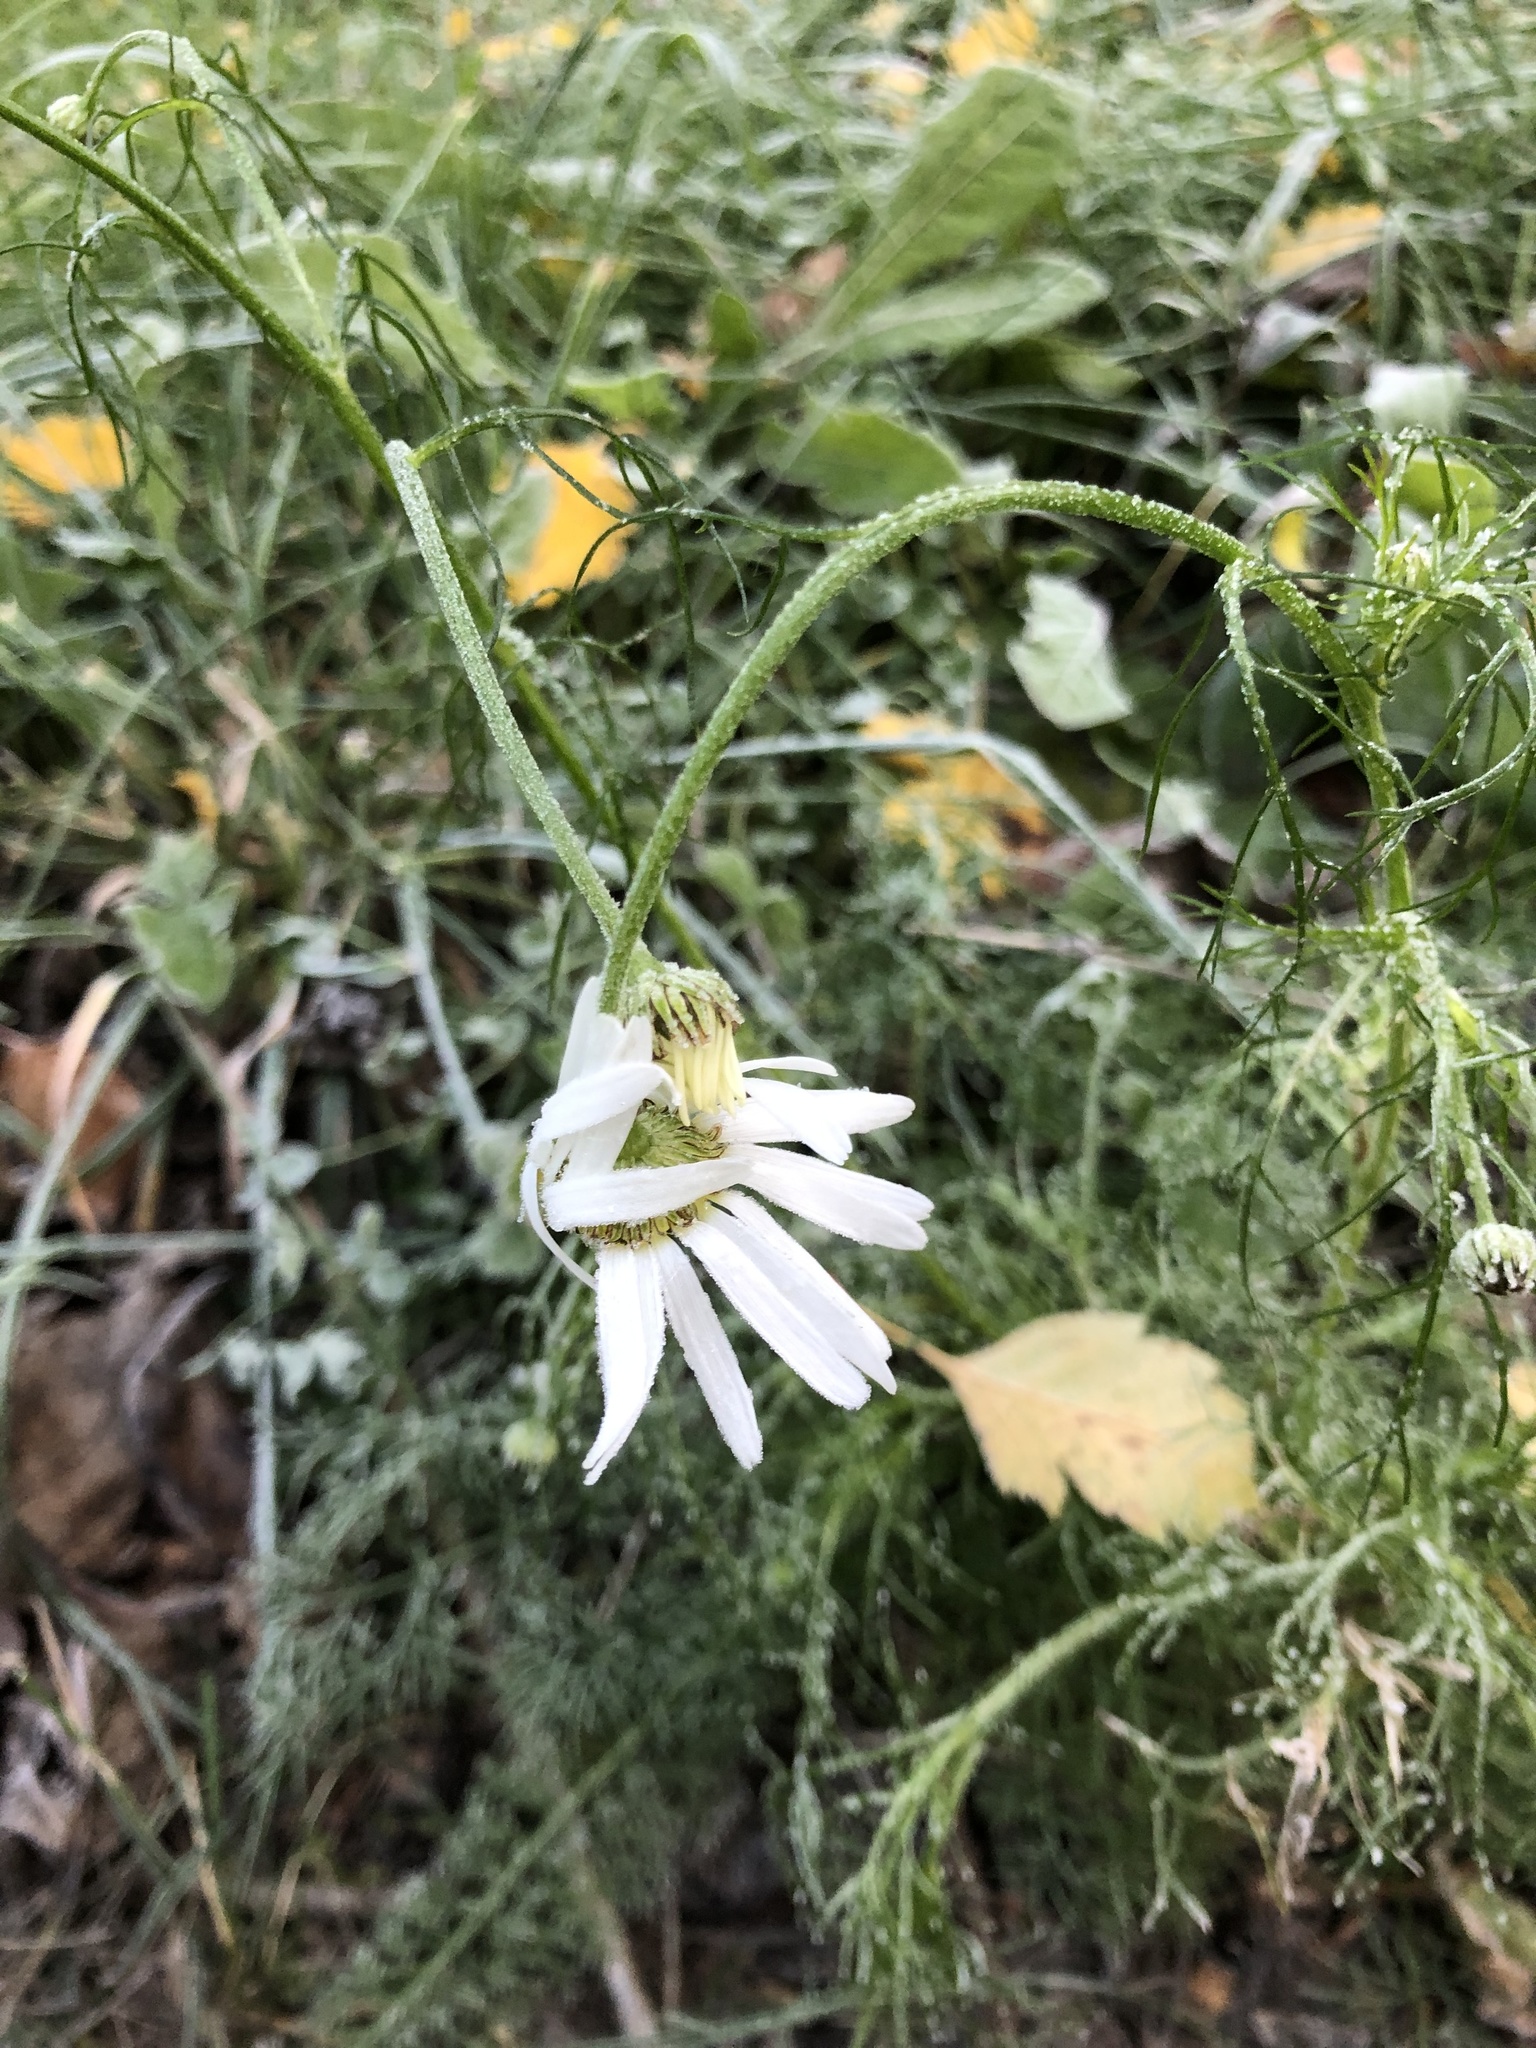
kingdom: Plantae
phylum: Tracheophyta
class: Magnoliopsida
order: Asterales
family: Asteraceae
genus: Tripleurospermum
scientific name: Tripleurospermum inodorum
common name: Scentless mayweed
